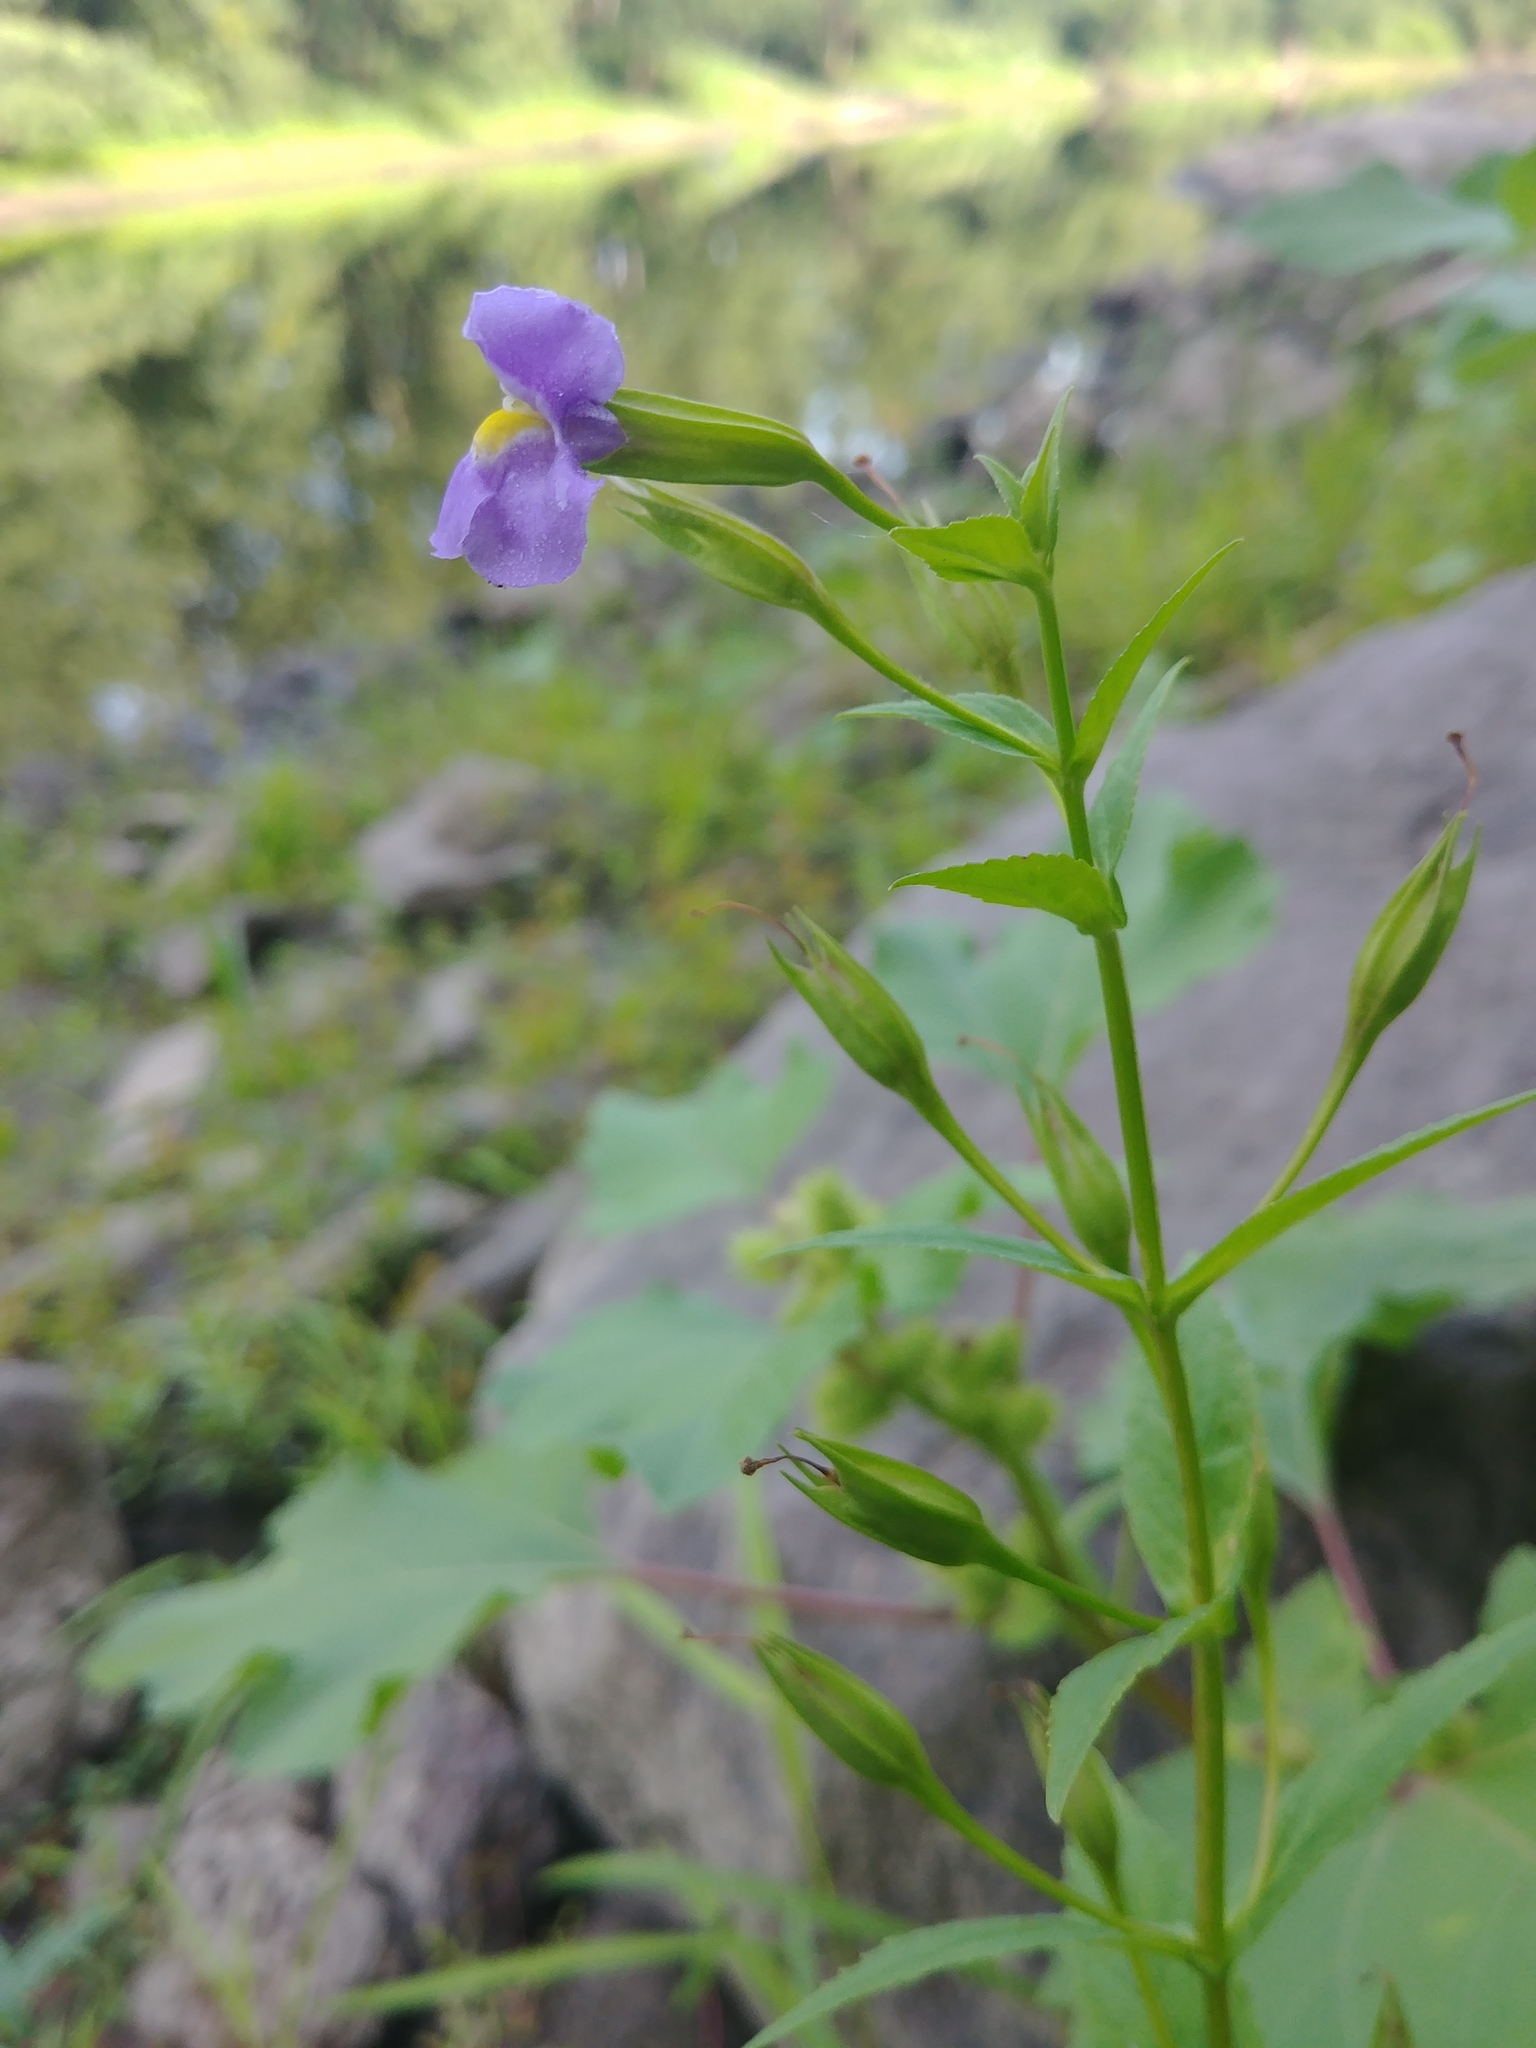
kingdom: Plantae
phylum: Tracheophyta
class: Magnoliopsida
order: Lamiales
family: Phrymaceae
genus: Mimulus
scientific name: Mimulus ringens
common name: Allegheny monkeyflower
